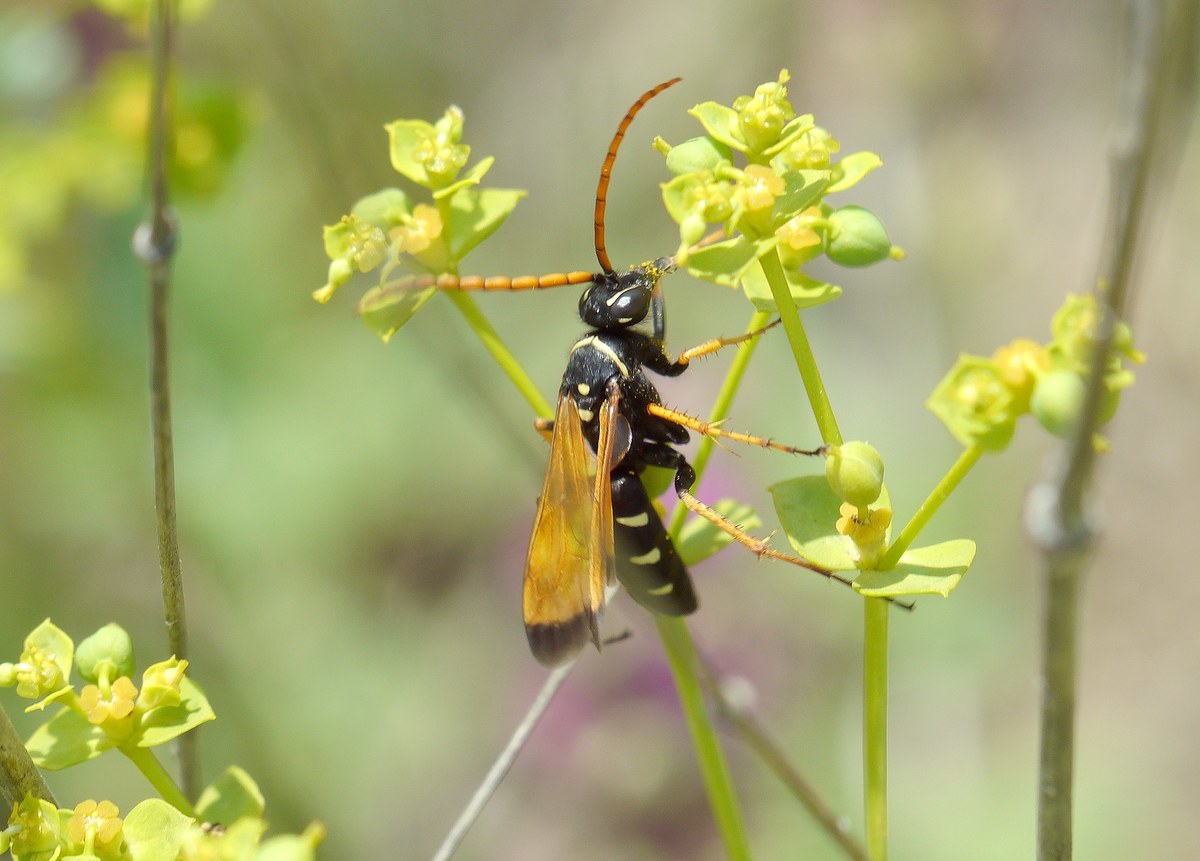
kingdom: Animalia
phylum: Arthropoda
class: Insecta
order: Hymenoptera
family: Pompilidae
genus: Parabatozonus
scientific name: Parabatozonus lacerticida
